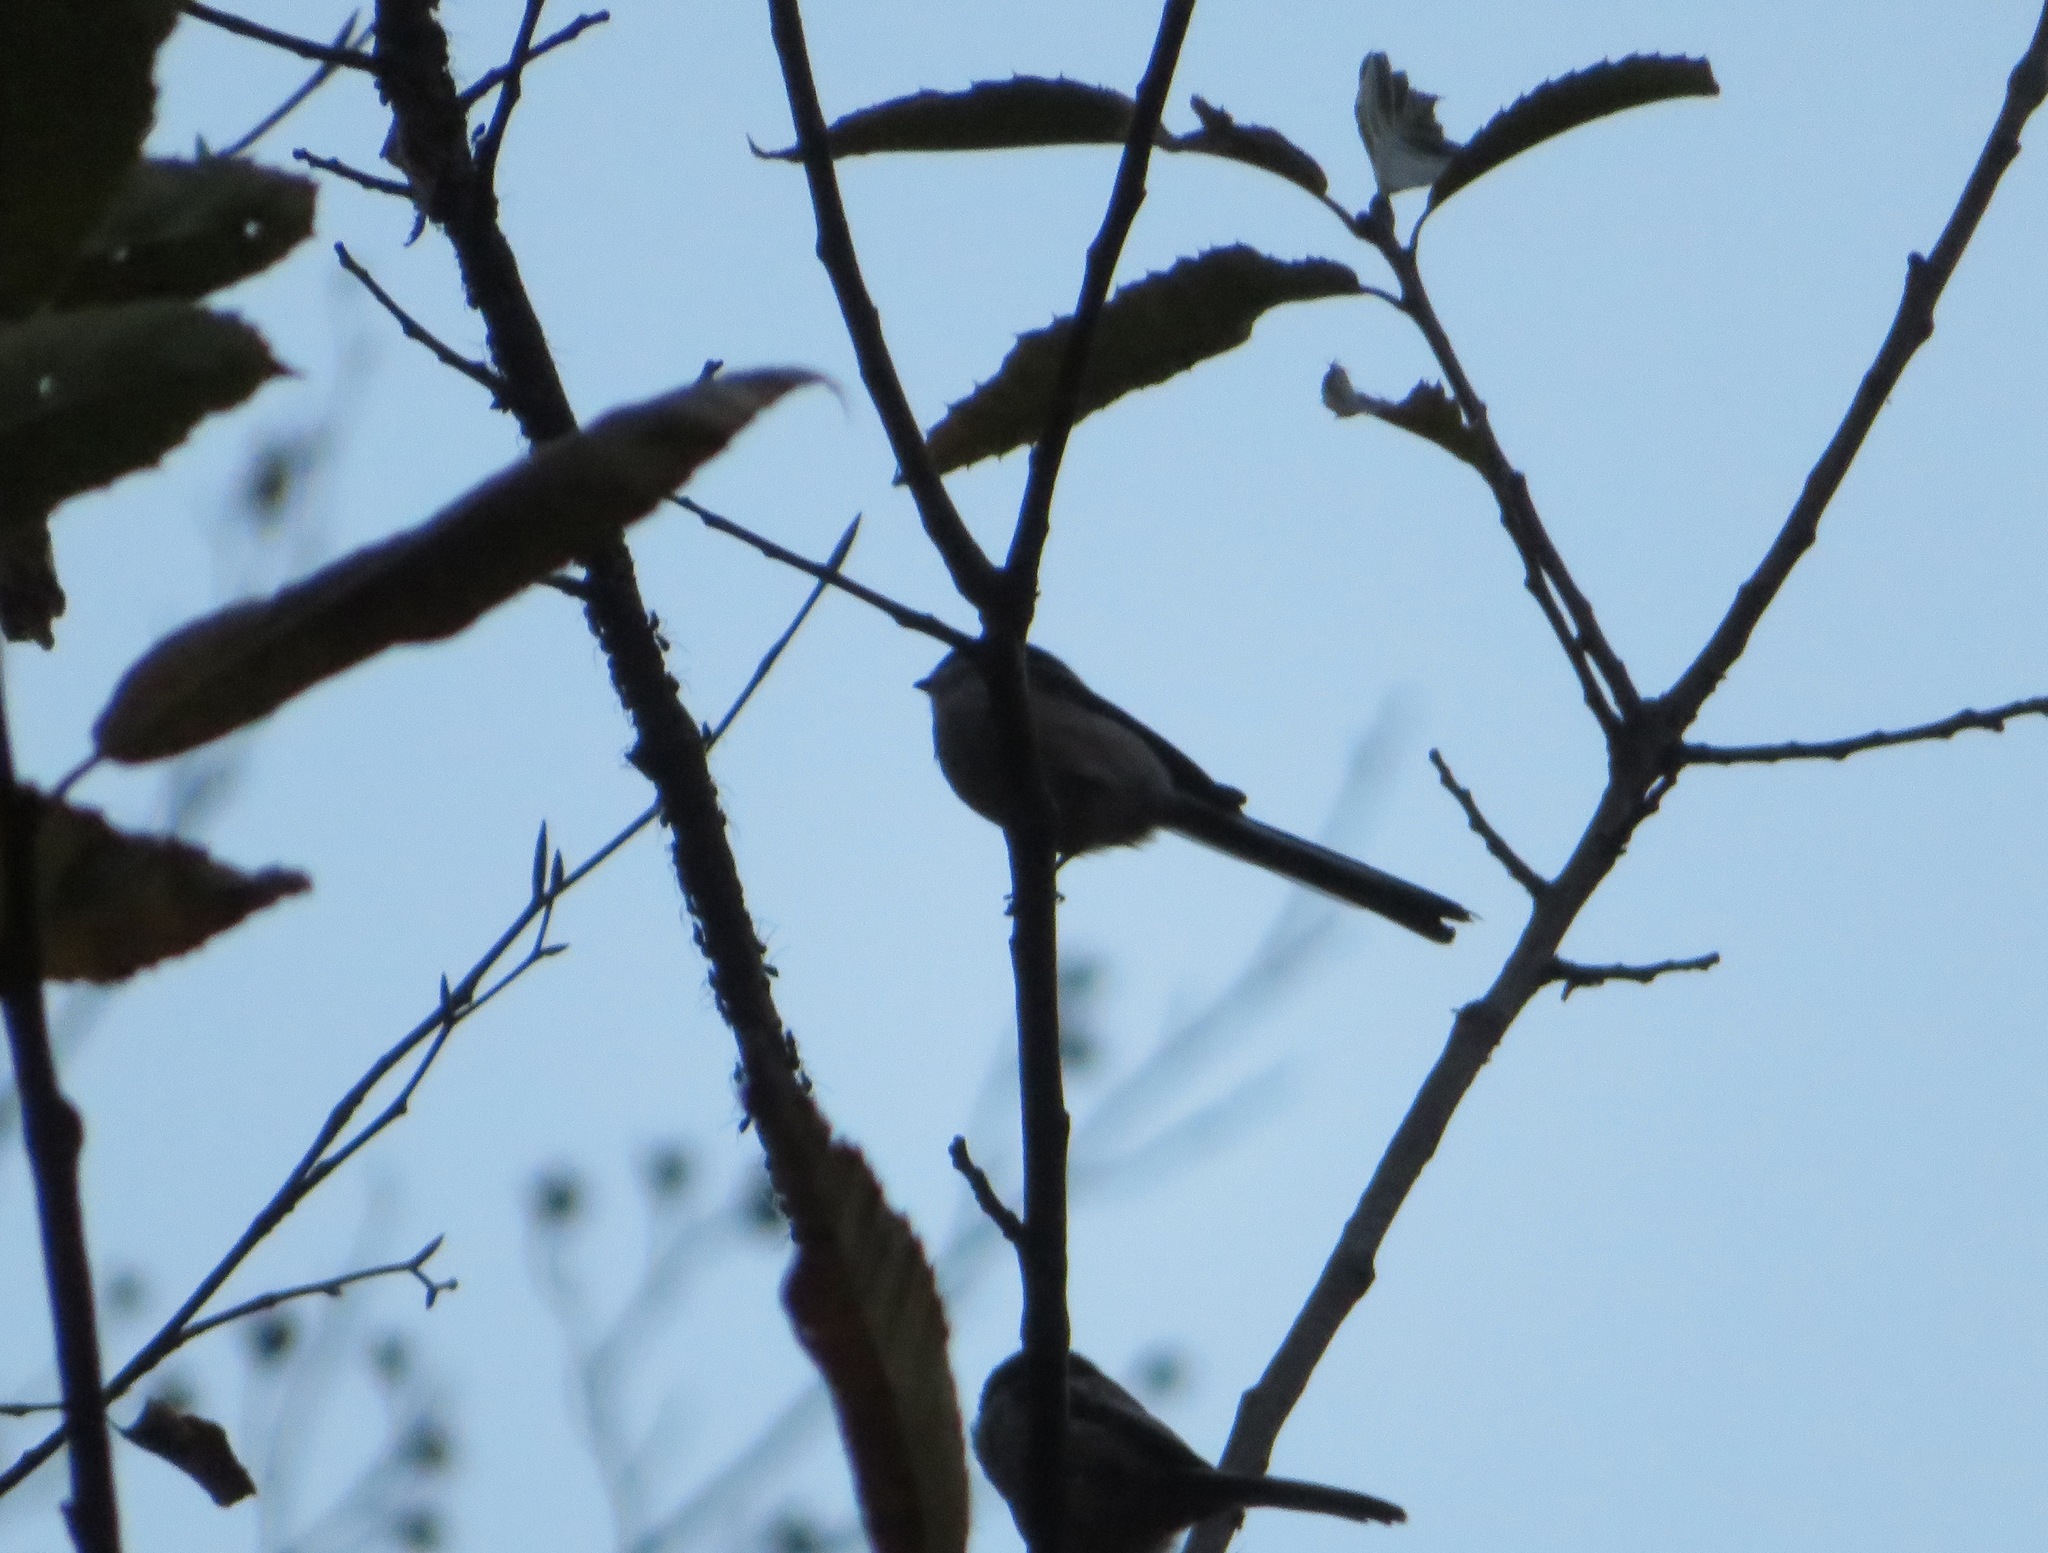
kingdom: Animalia
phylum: Chordata
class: Aves
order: Passeriformes
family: Aegithalidae
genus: Aegithalos
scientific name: Aegithalos caudatus
